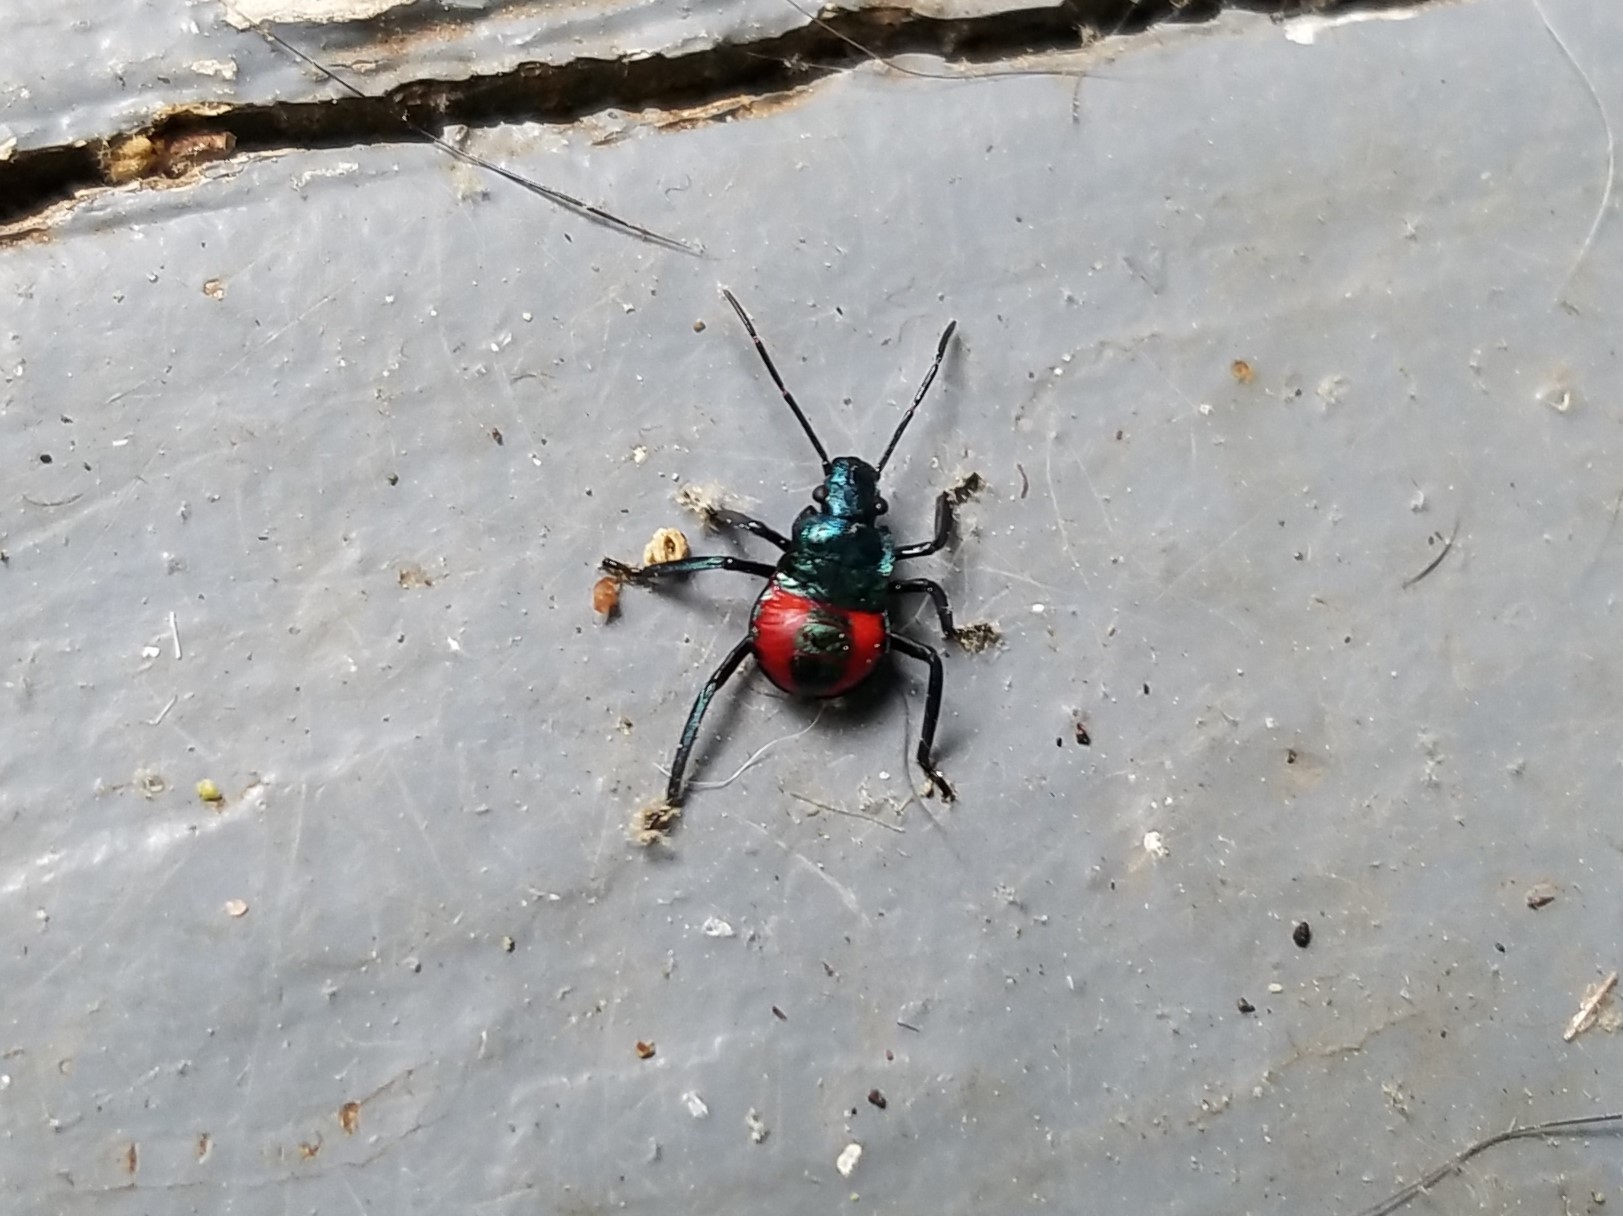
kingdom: Animalia
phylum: Arthropoda
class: Insecta
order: Hemiptera
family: Pentatomidae
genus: Euthyrhynchus
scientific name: Euthyrhynchus floridanus
